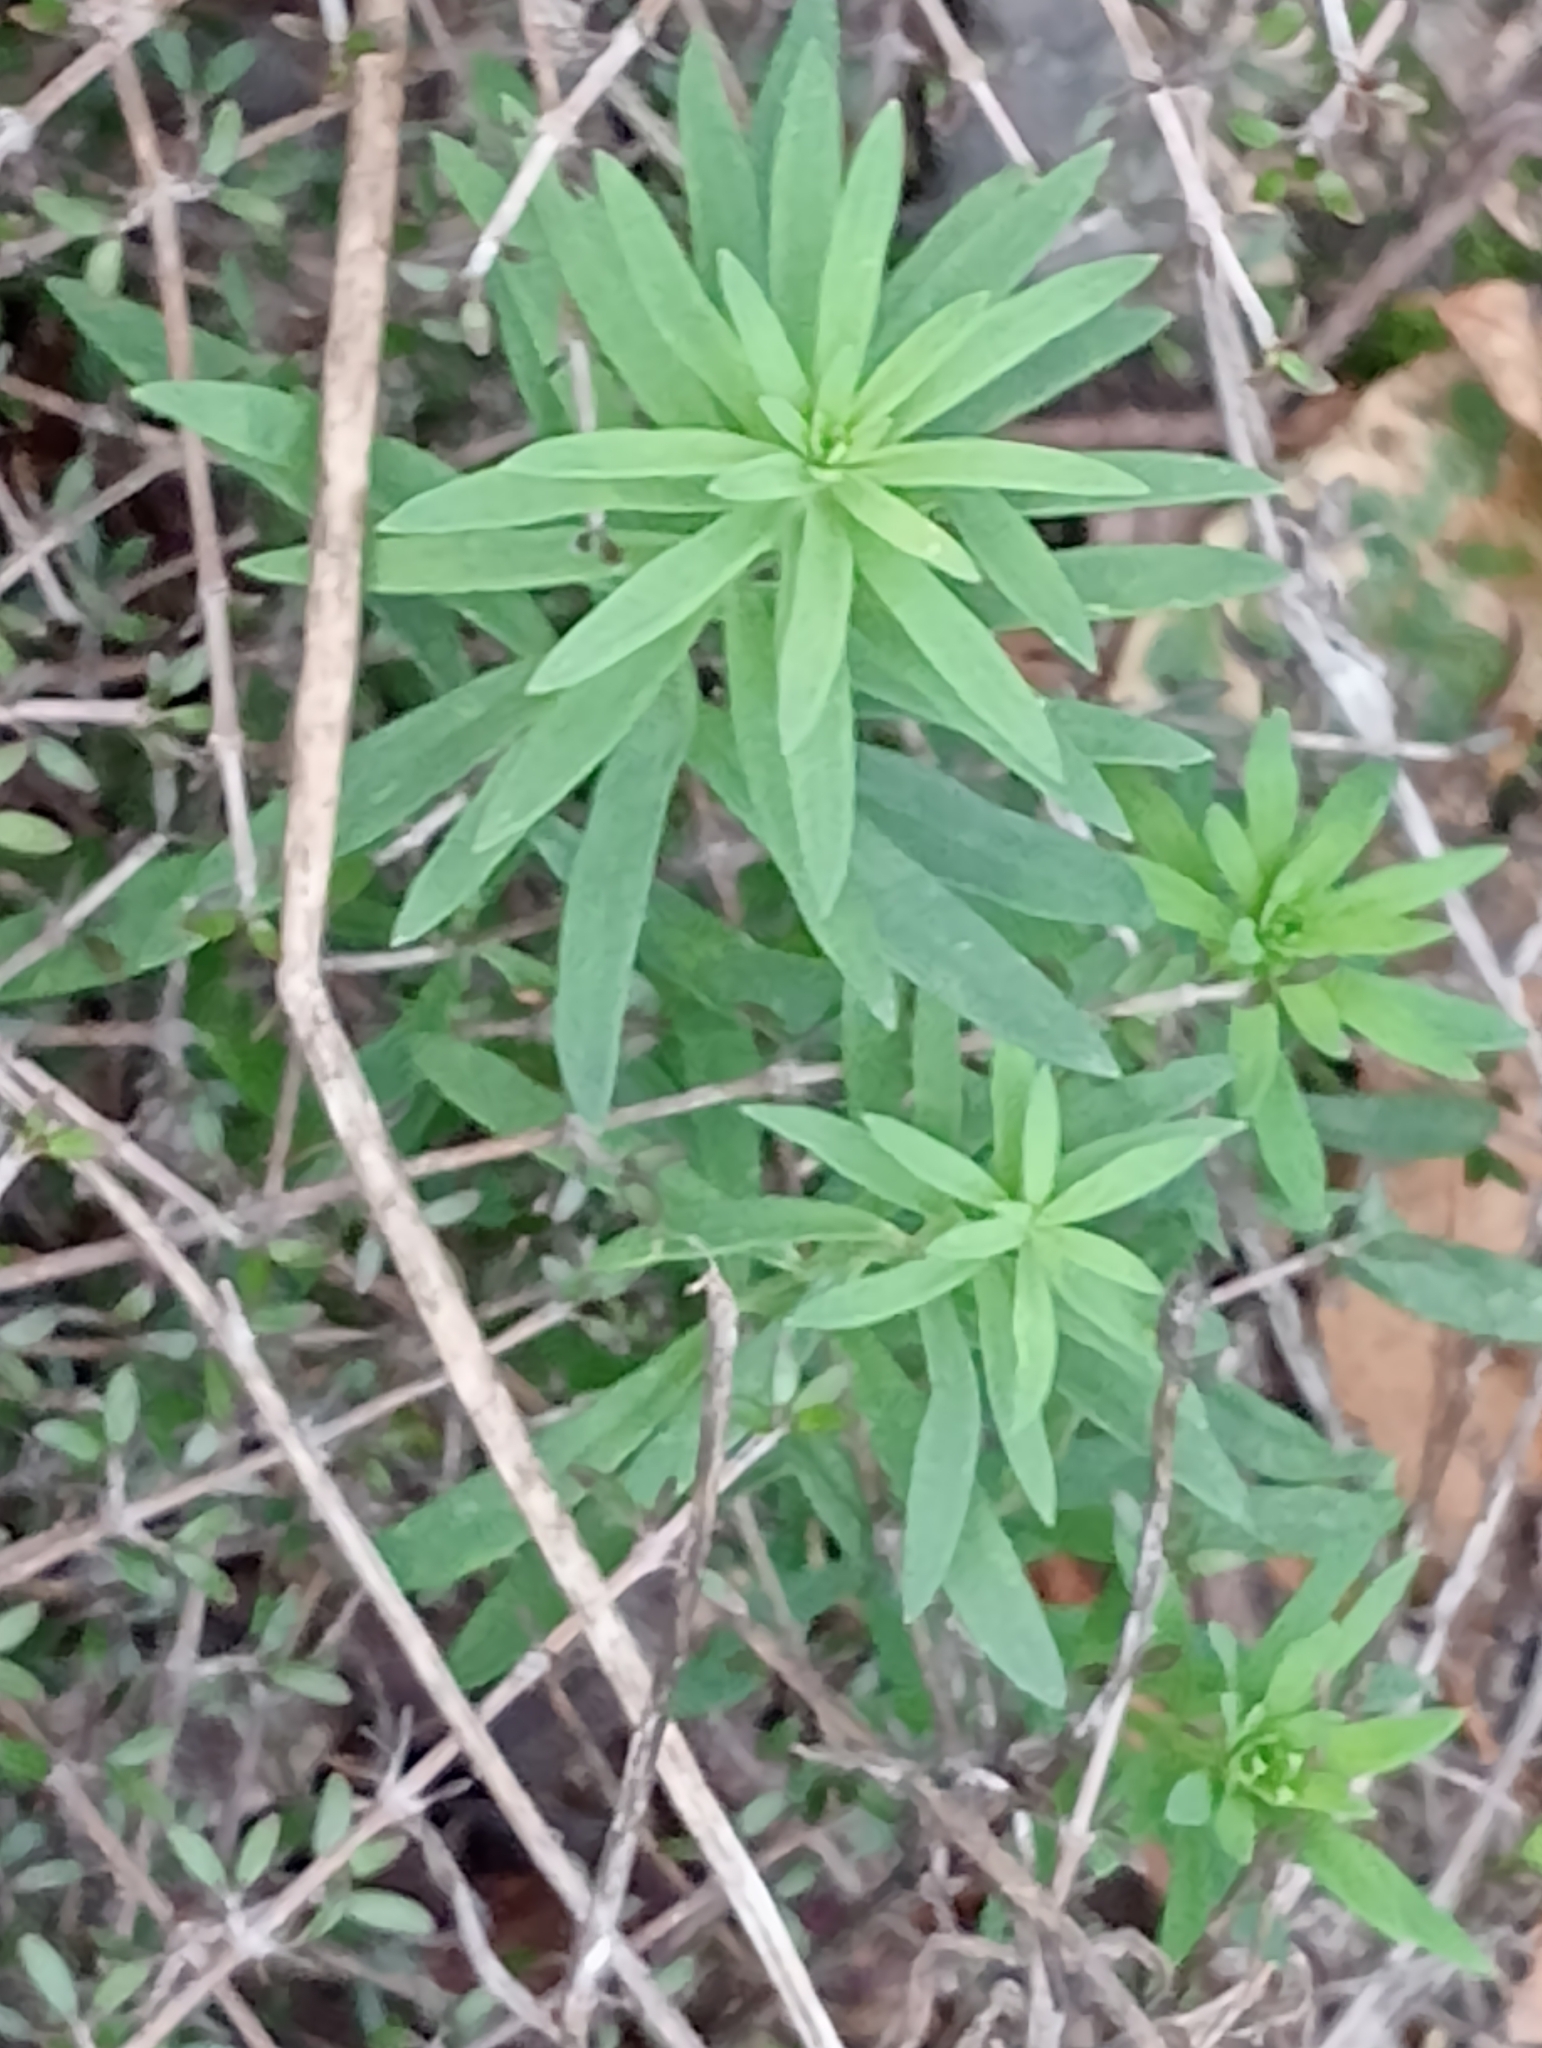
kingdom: Plantae
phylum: Tracheophyta
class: Magnoliopsida
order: Lamiales
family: Plantaginaceae
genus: Linaria
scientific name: Linaria purpurea
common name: Purple toadflax
